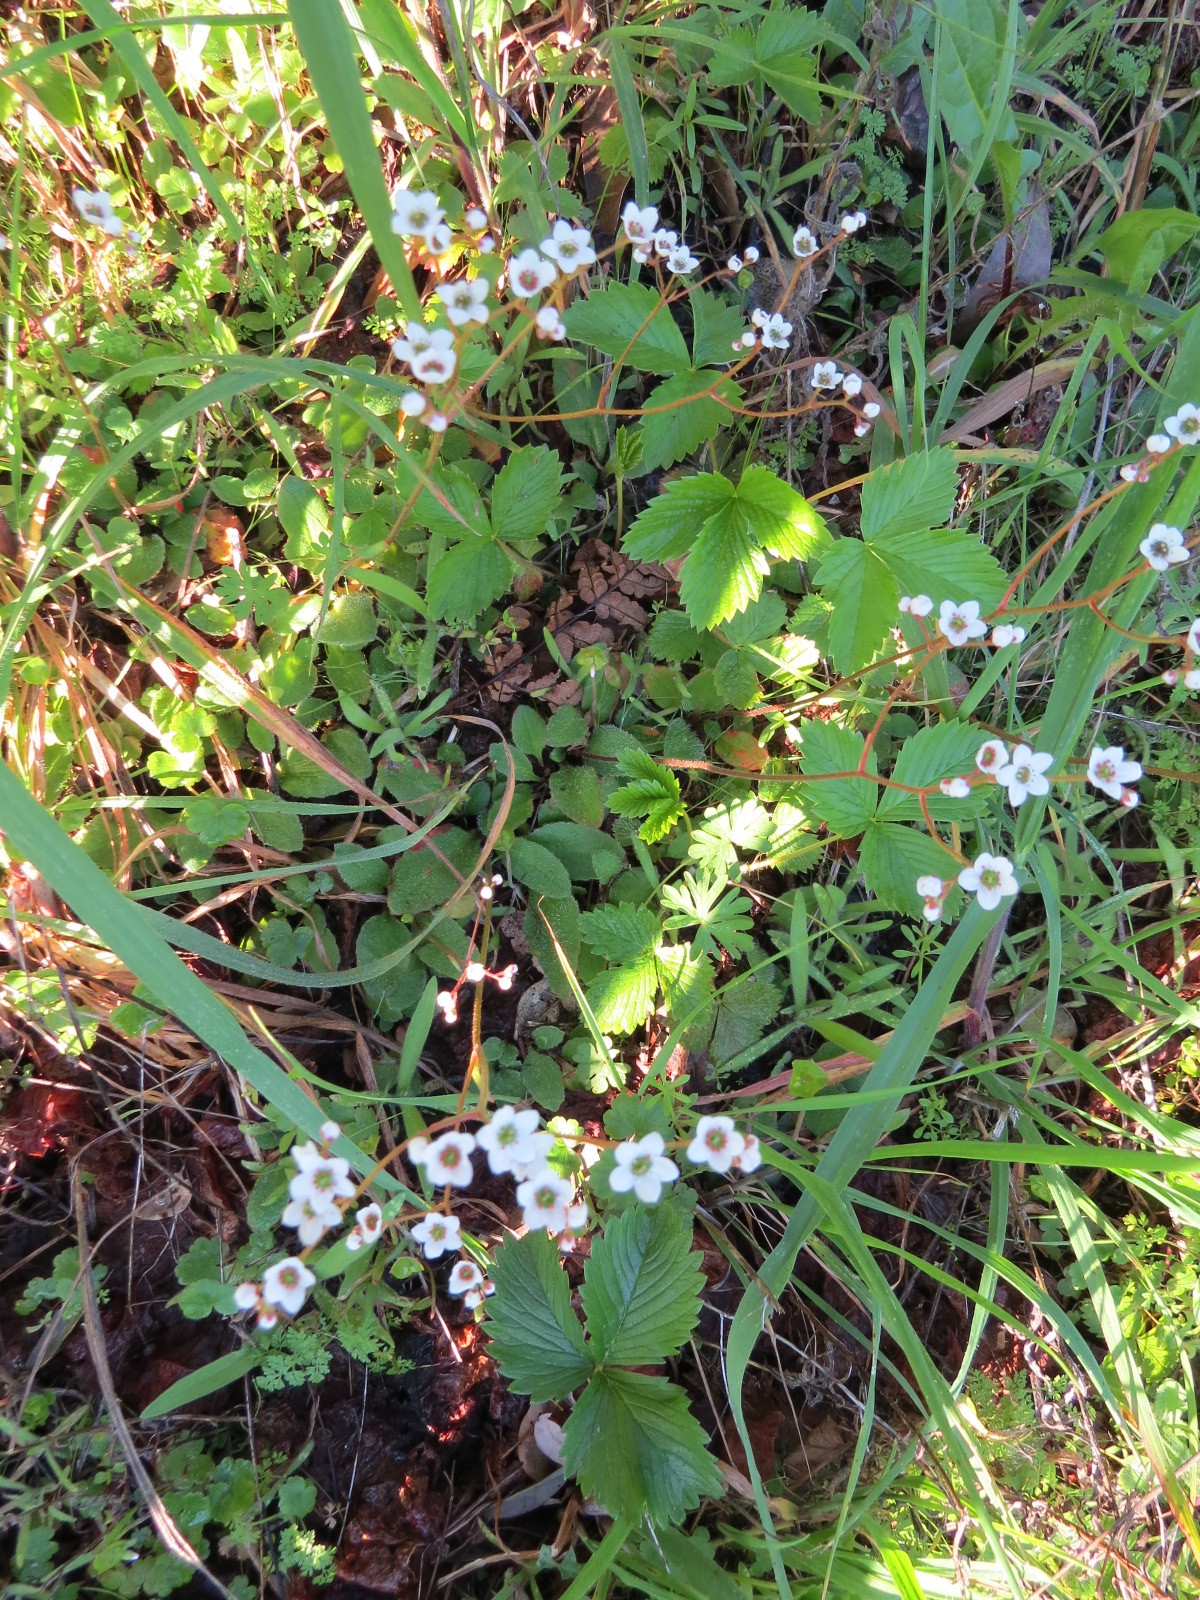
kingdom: Plantae
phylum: Tracheophyta
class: Magnoliopsida
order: Saxifragales
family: Saxifragaceae
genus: Micranthes
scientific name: Micranthes californica
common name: California saxifrage
